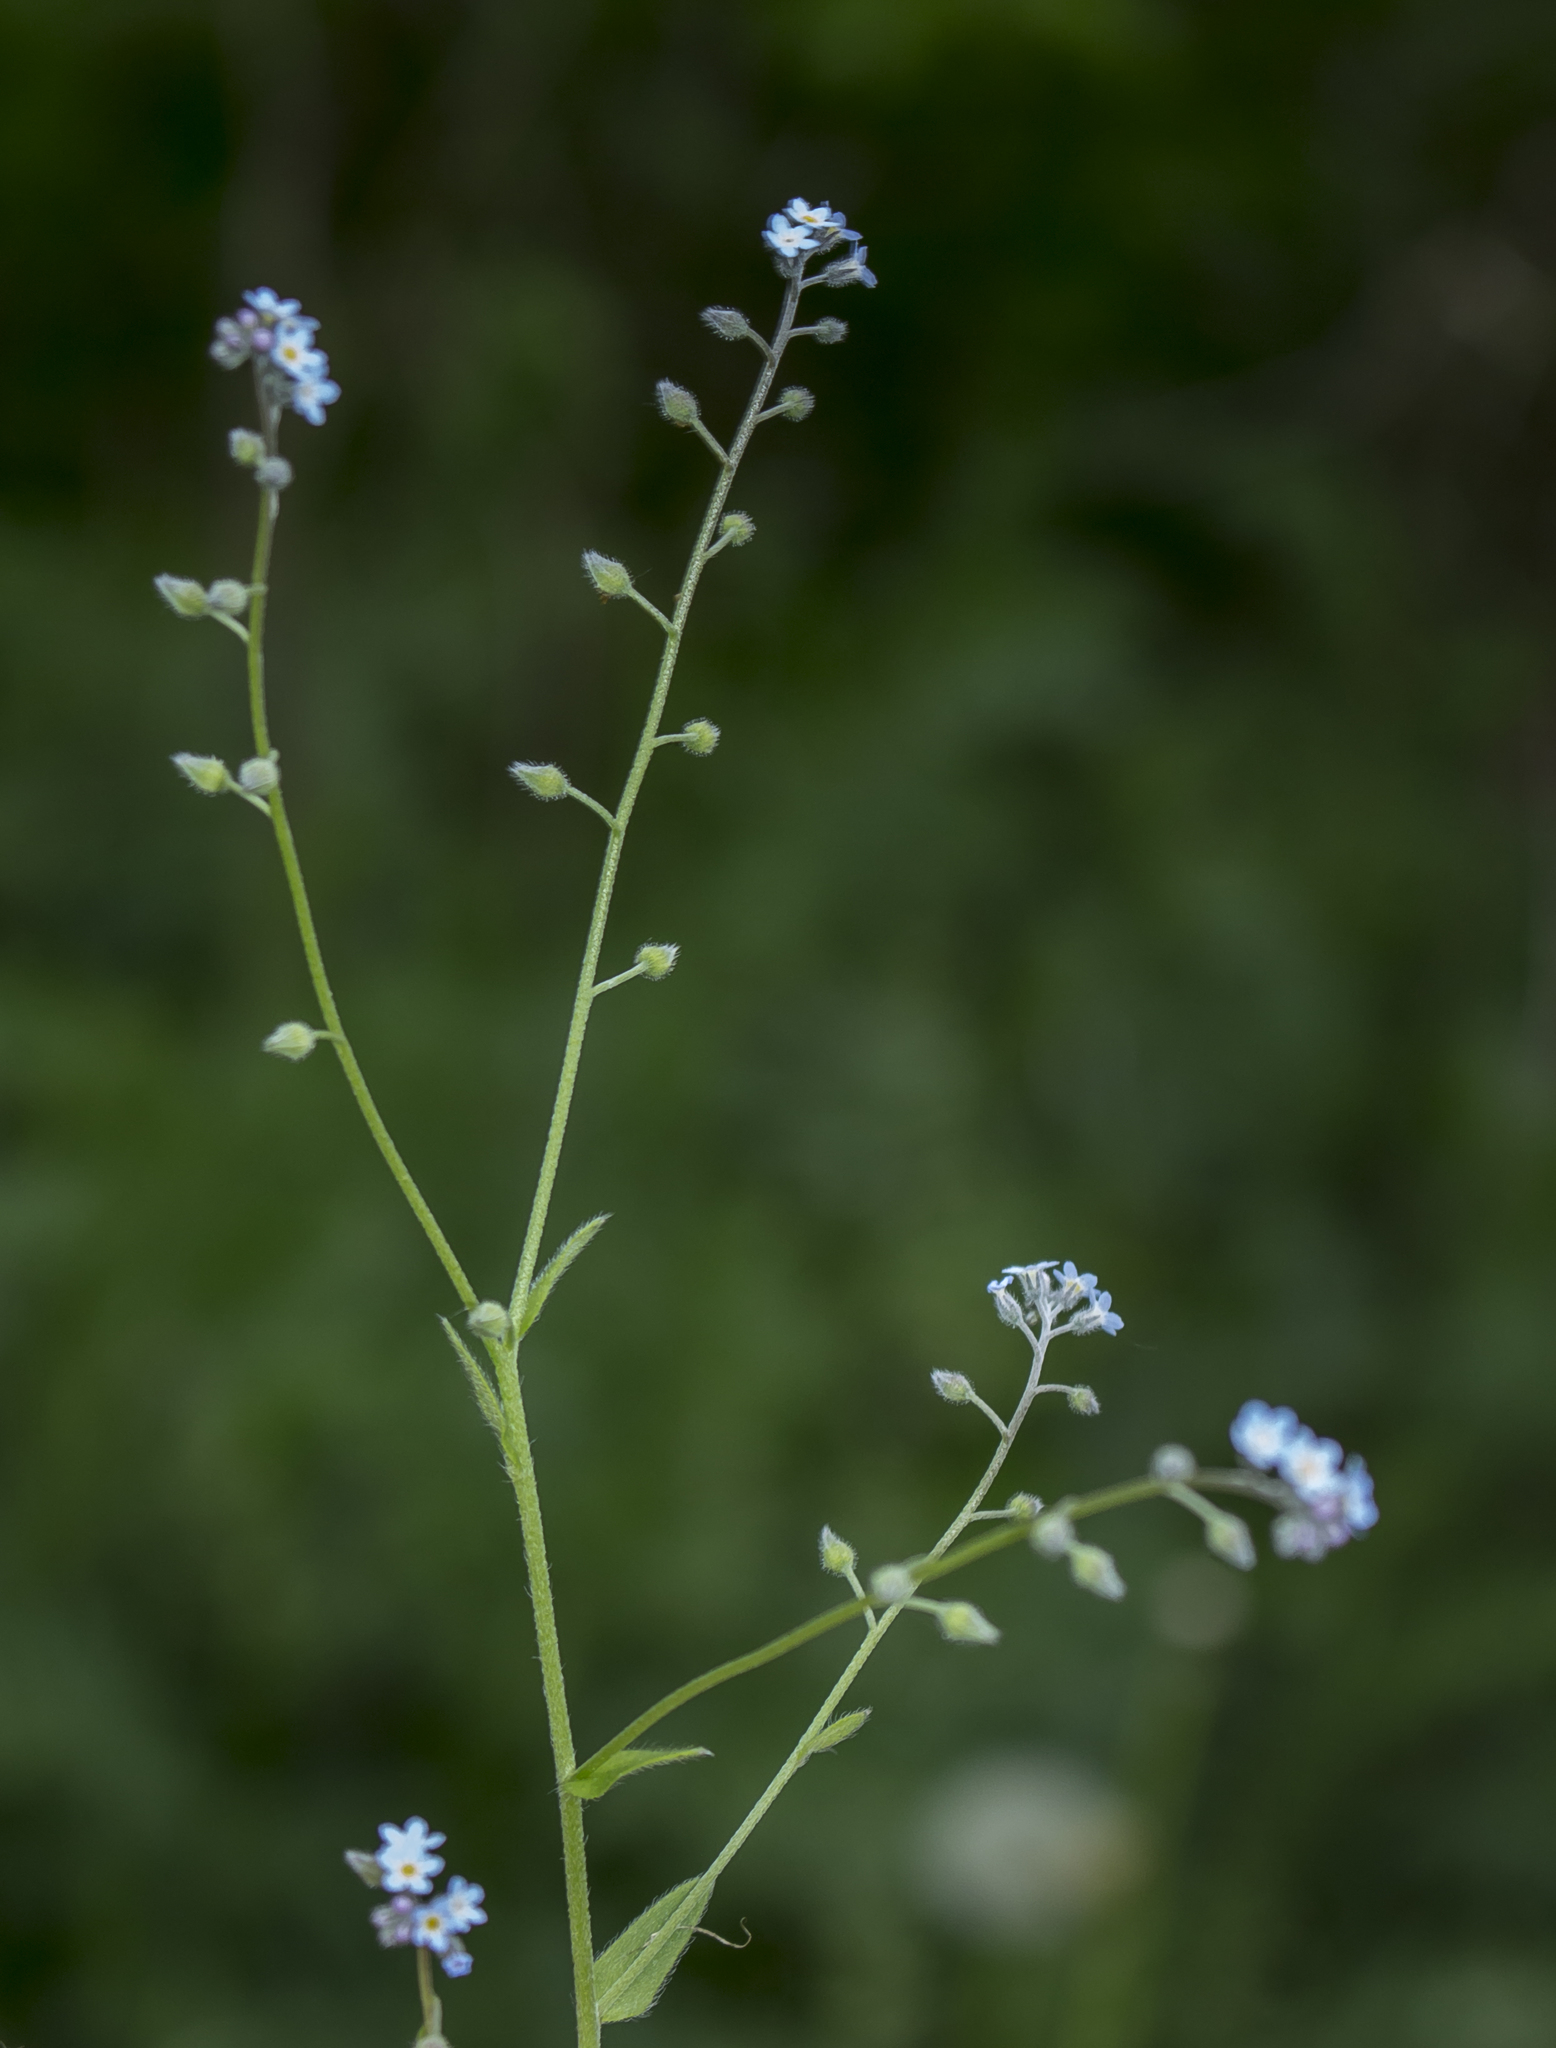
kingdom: Plantae
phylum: Tracheophyta
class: Magnoliopsida
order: Boraginales
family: Boraginaceae
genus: Myosotis
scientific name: Myosotis arvensis
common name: Field forget-me-not
